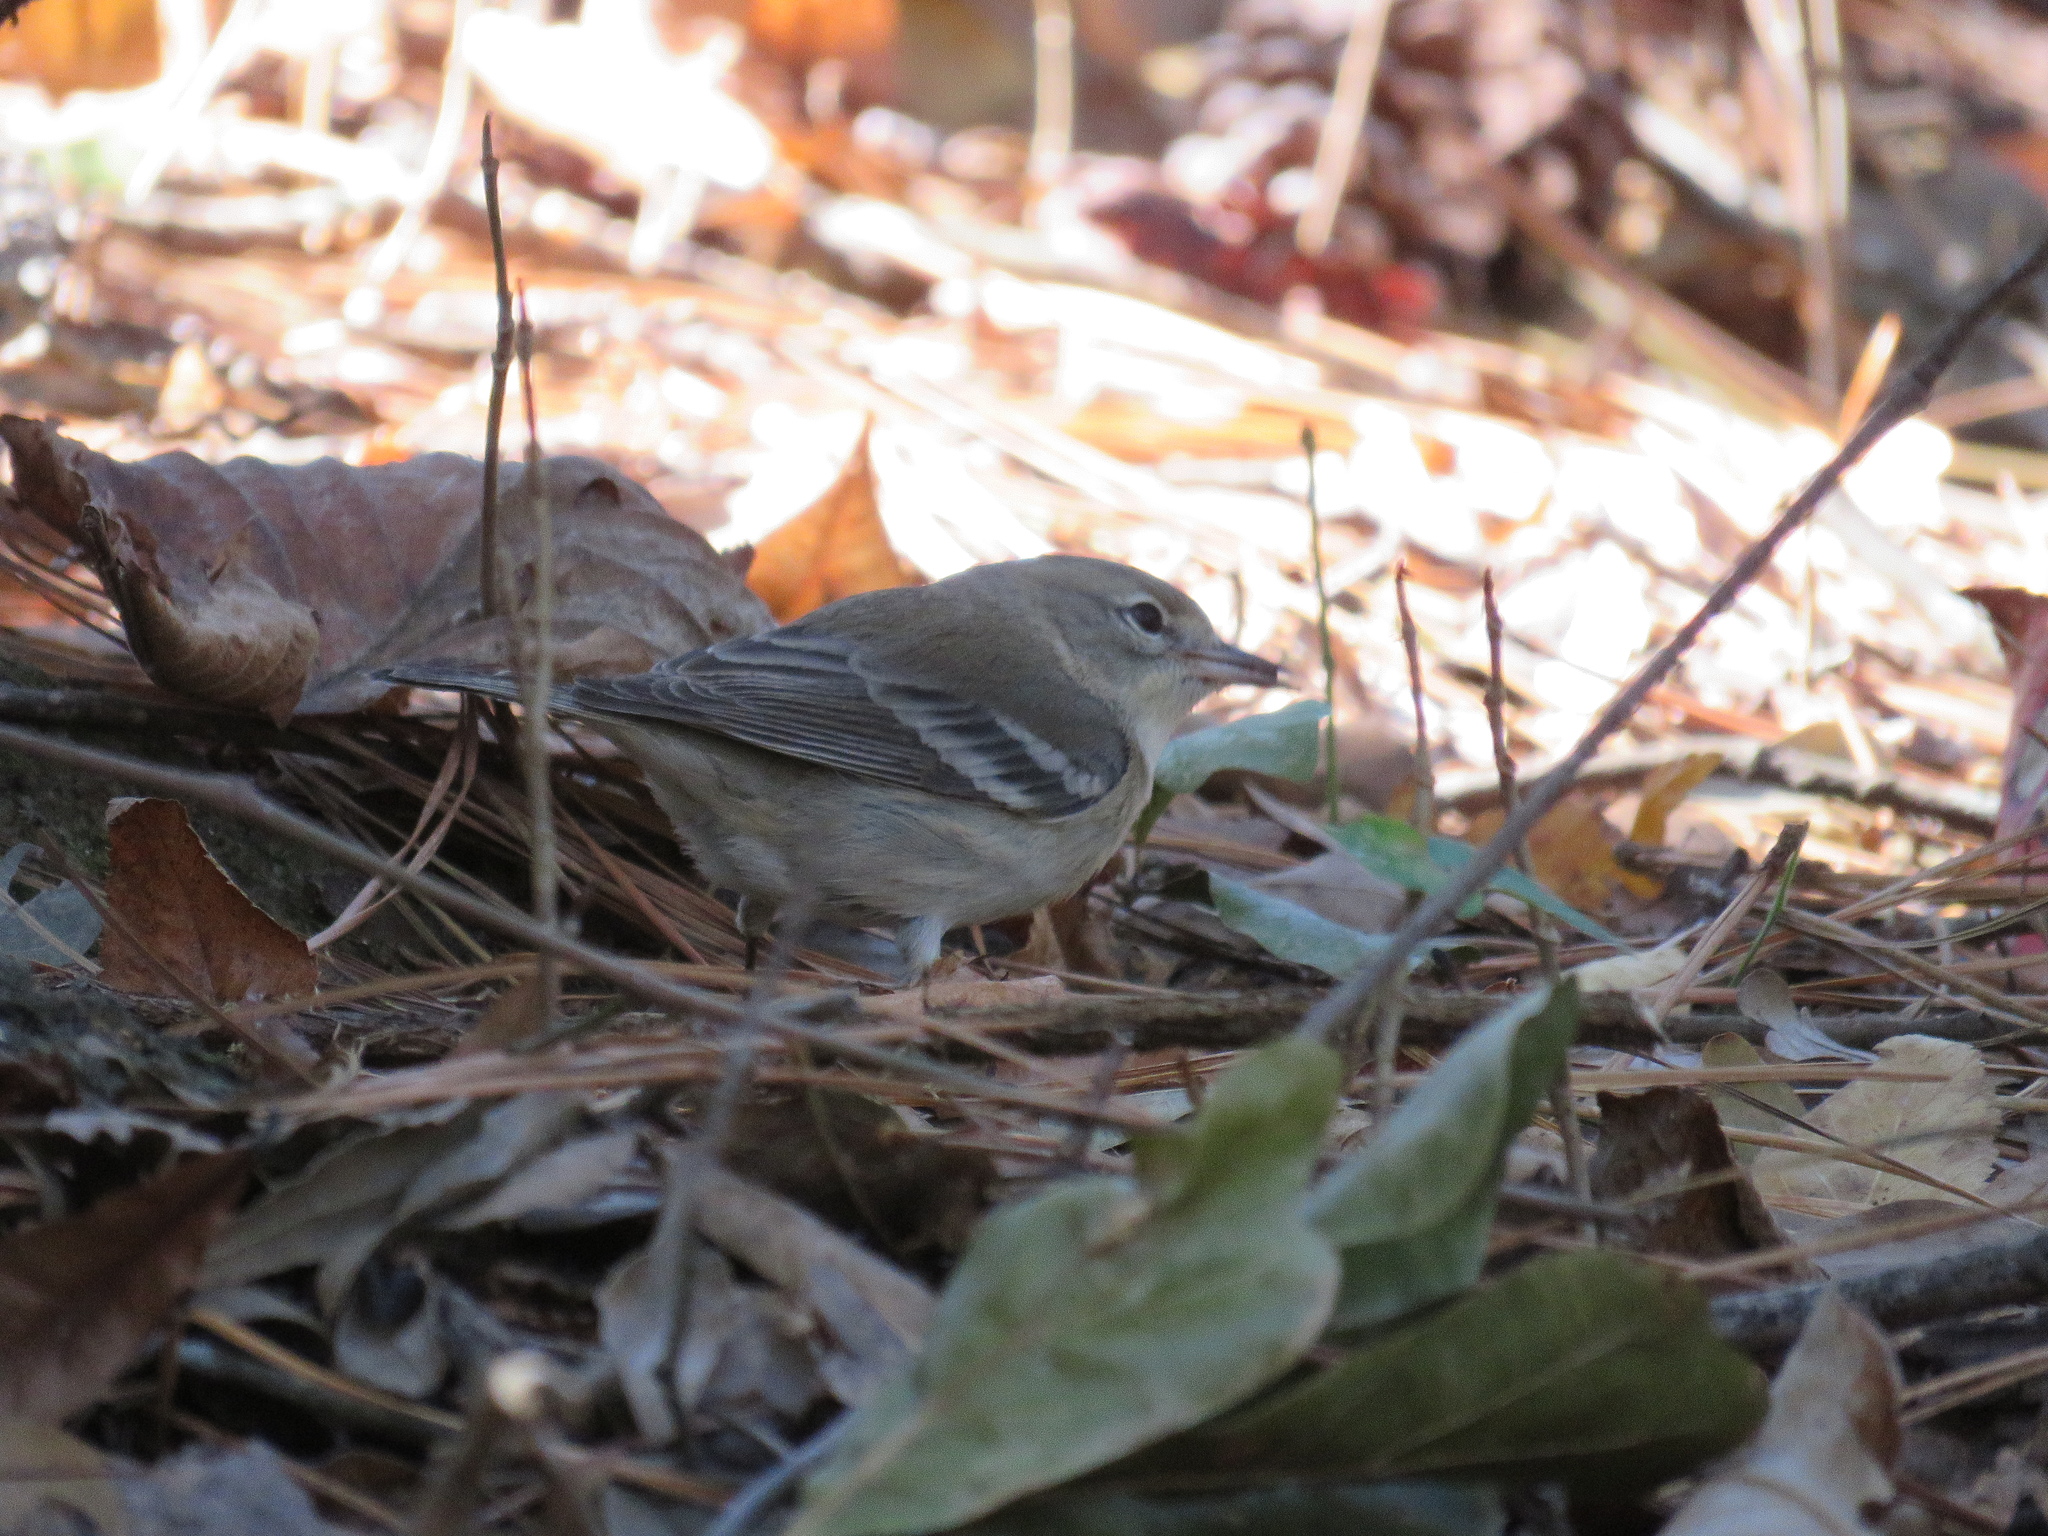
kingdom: Animalia
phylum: Chordata
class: Aves
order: Passeriformes
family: Parulidae
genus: Setophaga
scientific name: Setophaga pinus
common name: Pine warbler
